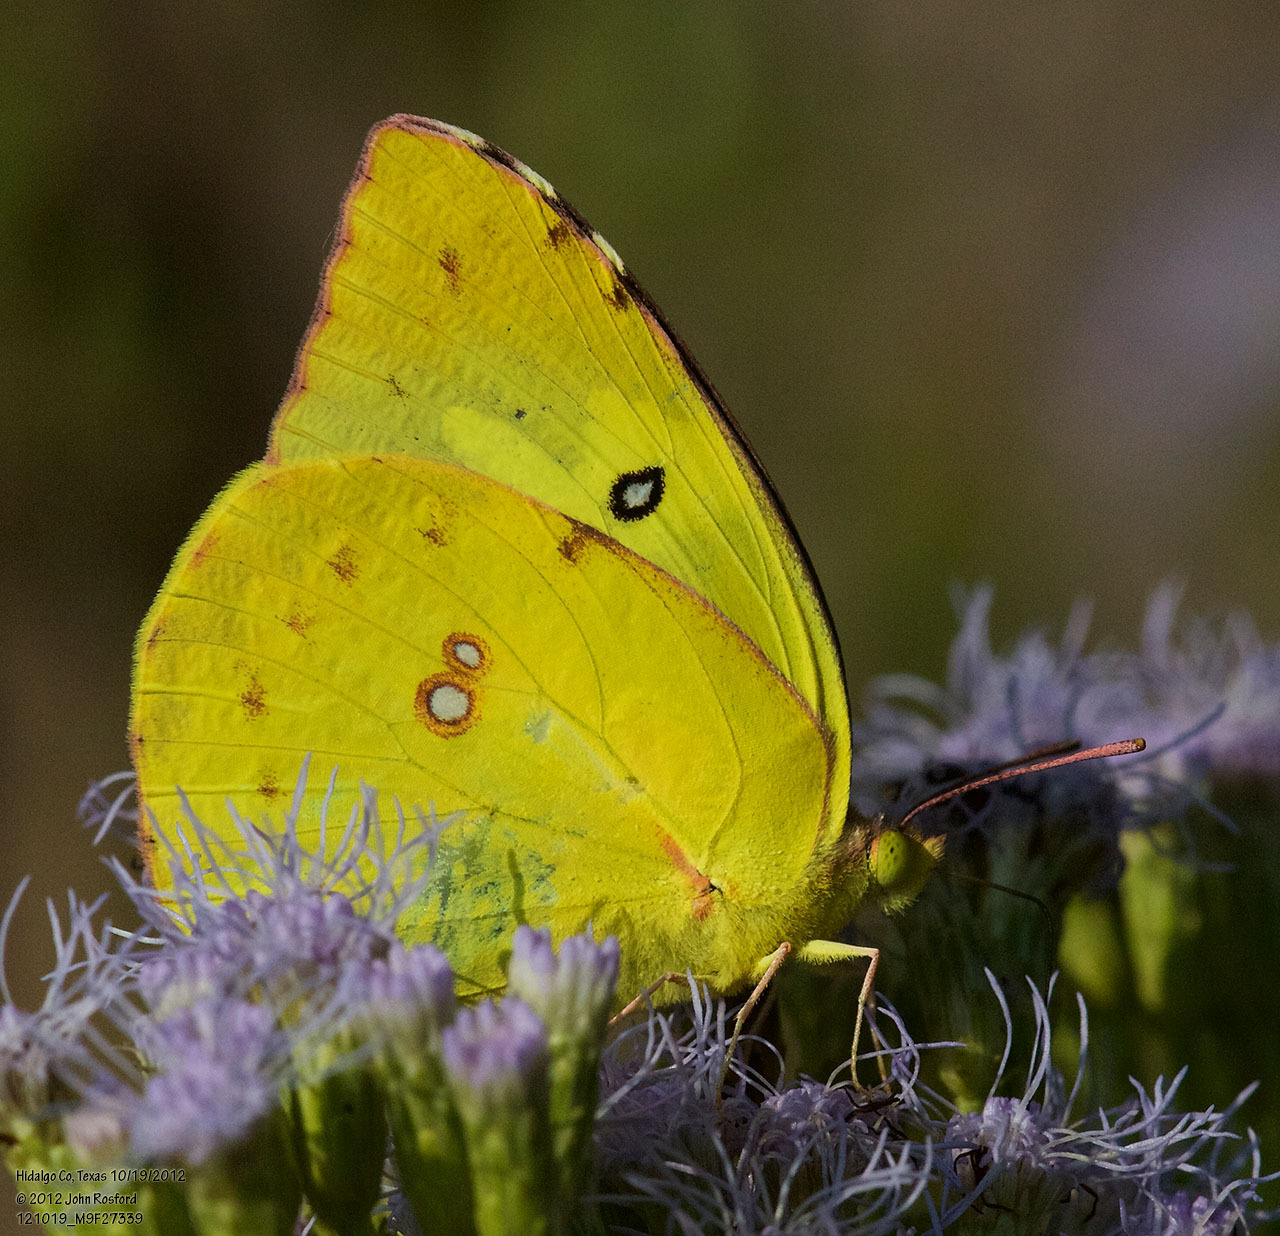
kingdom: Animalia
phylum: Arthropoda
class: Insecta
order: Lepidoptera
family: Pieridae
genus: Zerene
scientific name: Zerene cesonia
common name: Southern dogface
